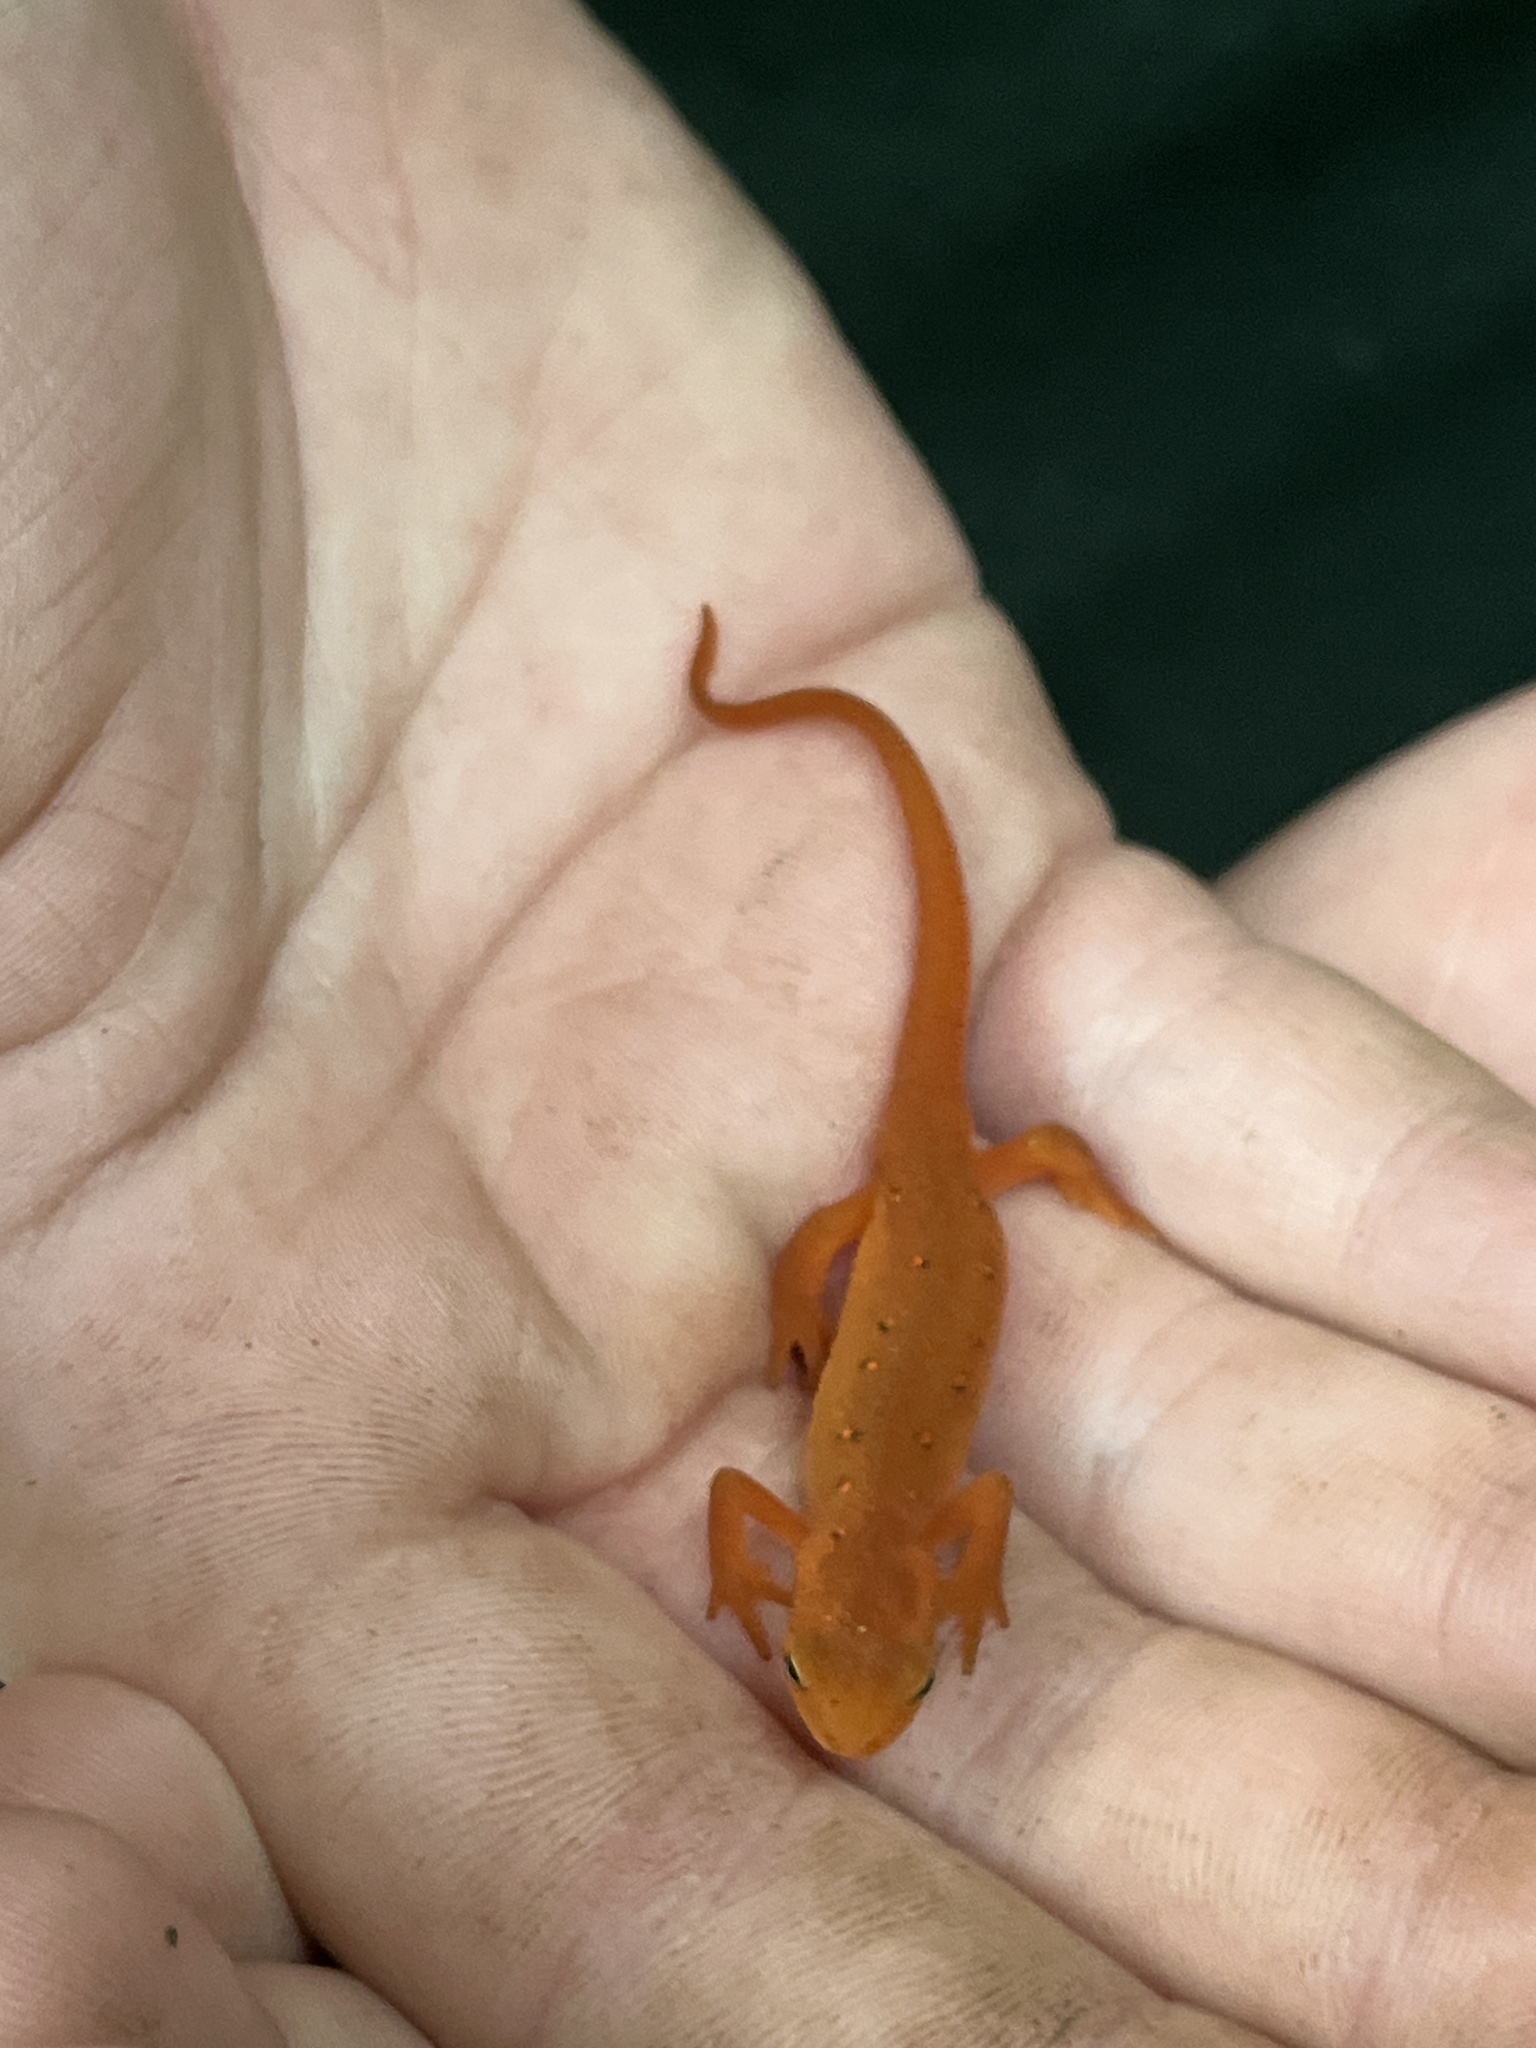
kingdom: Animalia
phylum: Chordata
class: Amphibia
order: Caudata
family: Salamandridae
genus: Notophthalmus
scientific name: Notophthalmus viridescens
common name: Eastern newt
